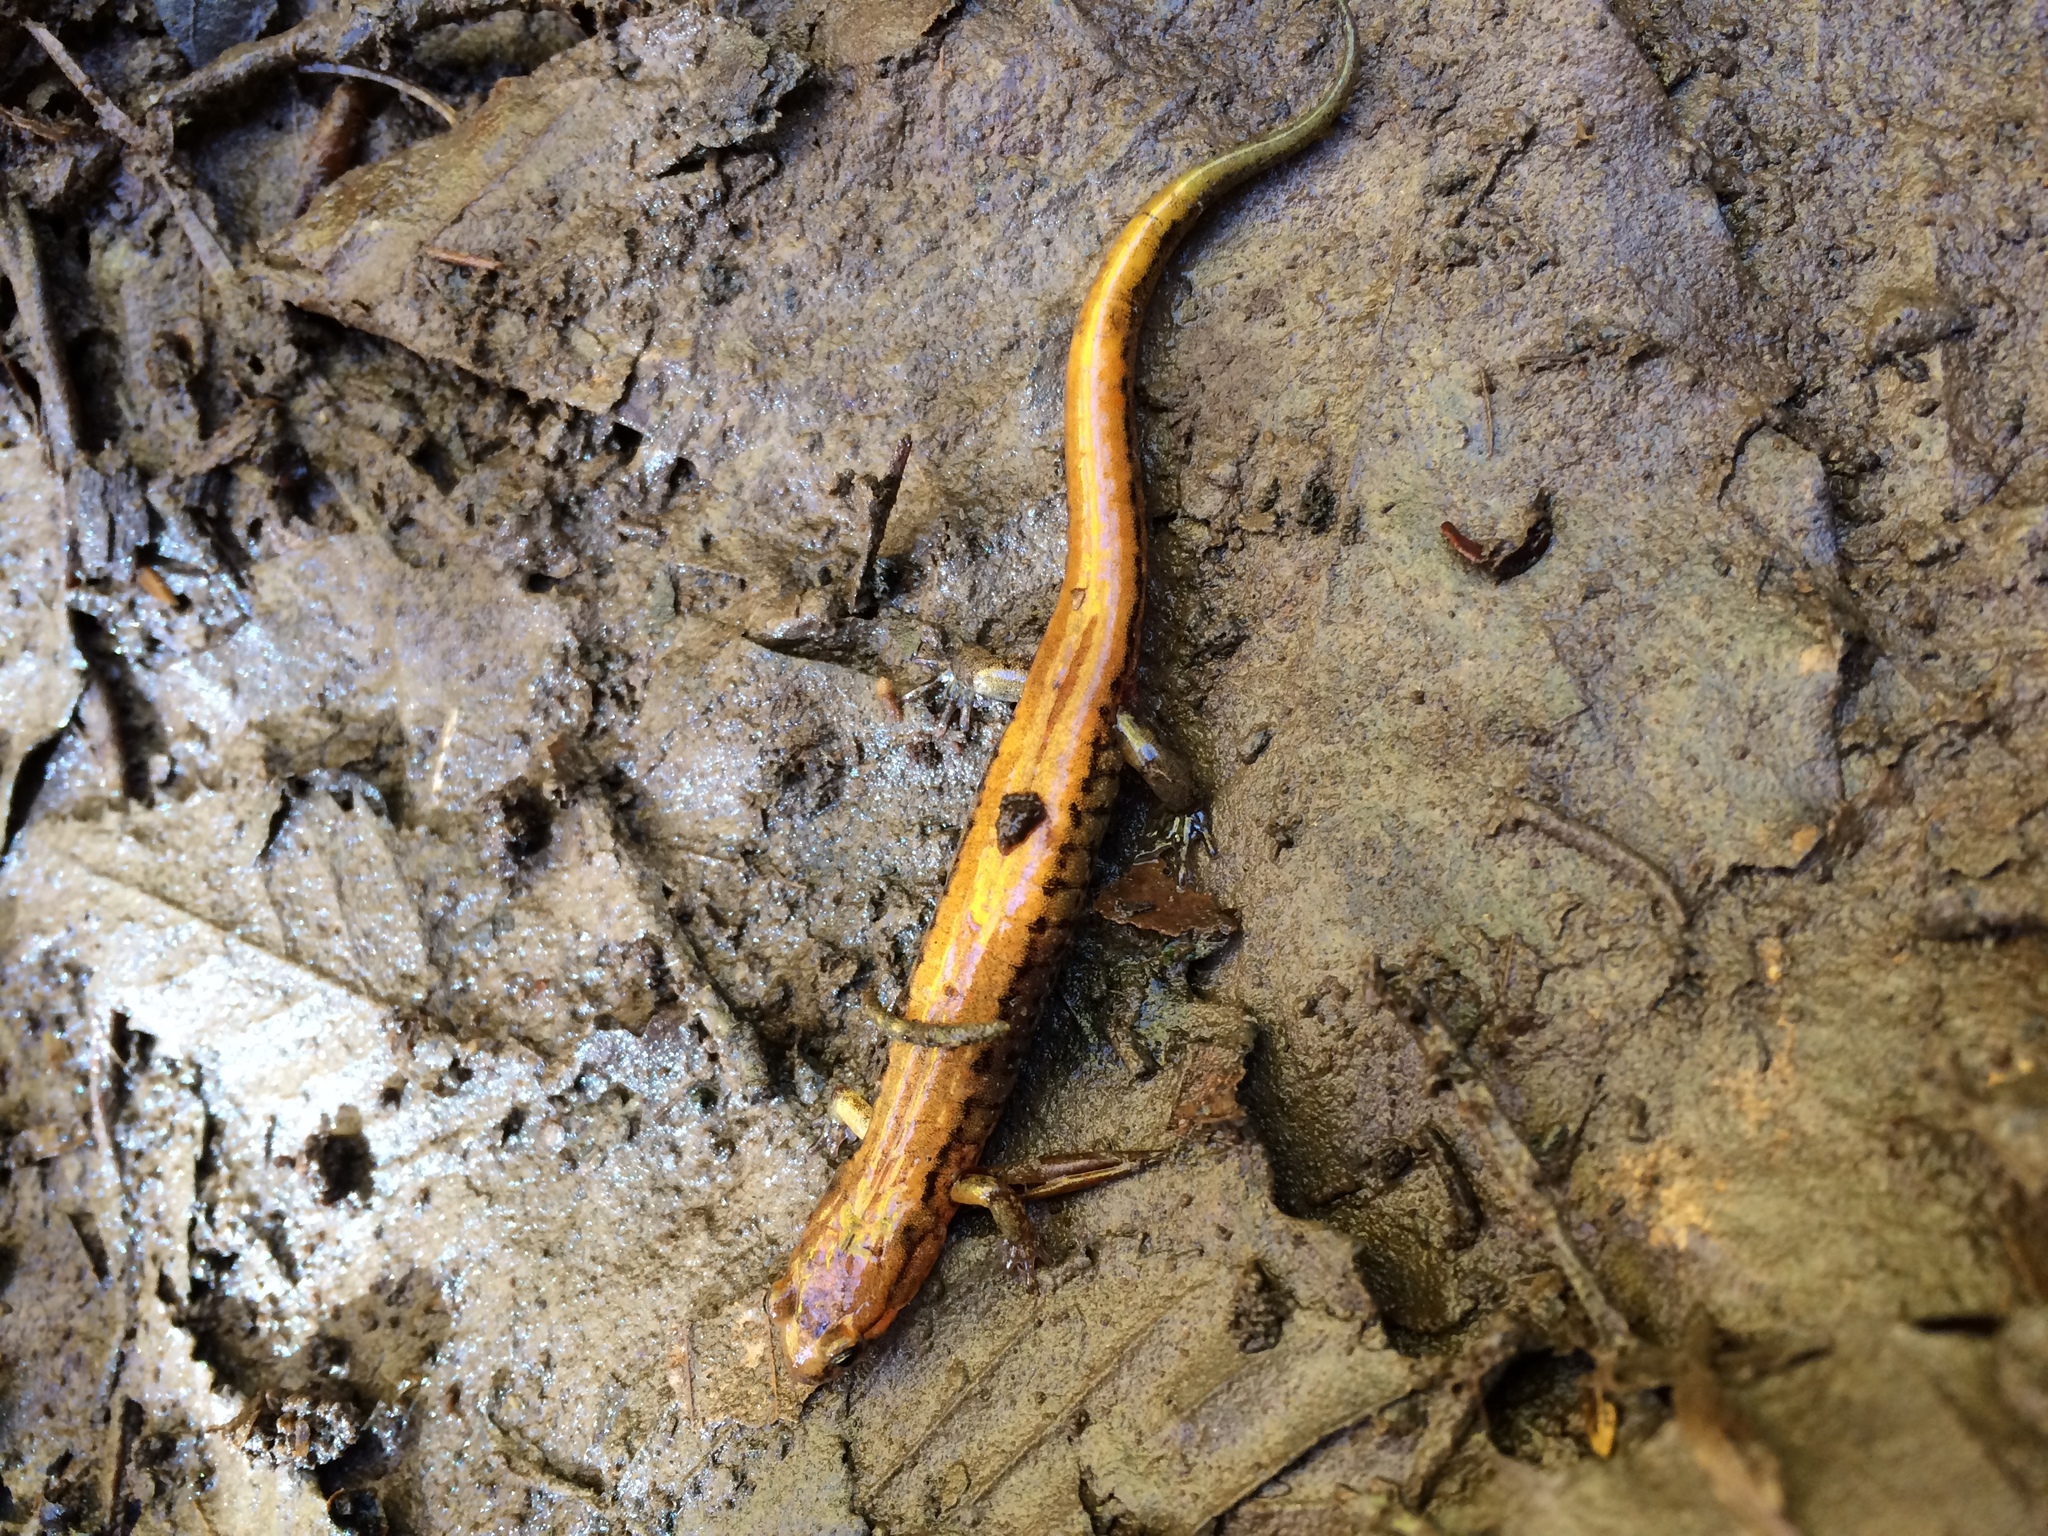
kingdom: Animalia
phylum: Chordata
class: Amphibia
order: Caudata
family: Plethodontidae
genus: Desmognathus
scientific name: Desmognathus ochrophaeus
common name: Allegheny mountain dusky salamander
